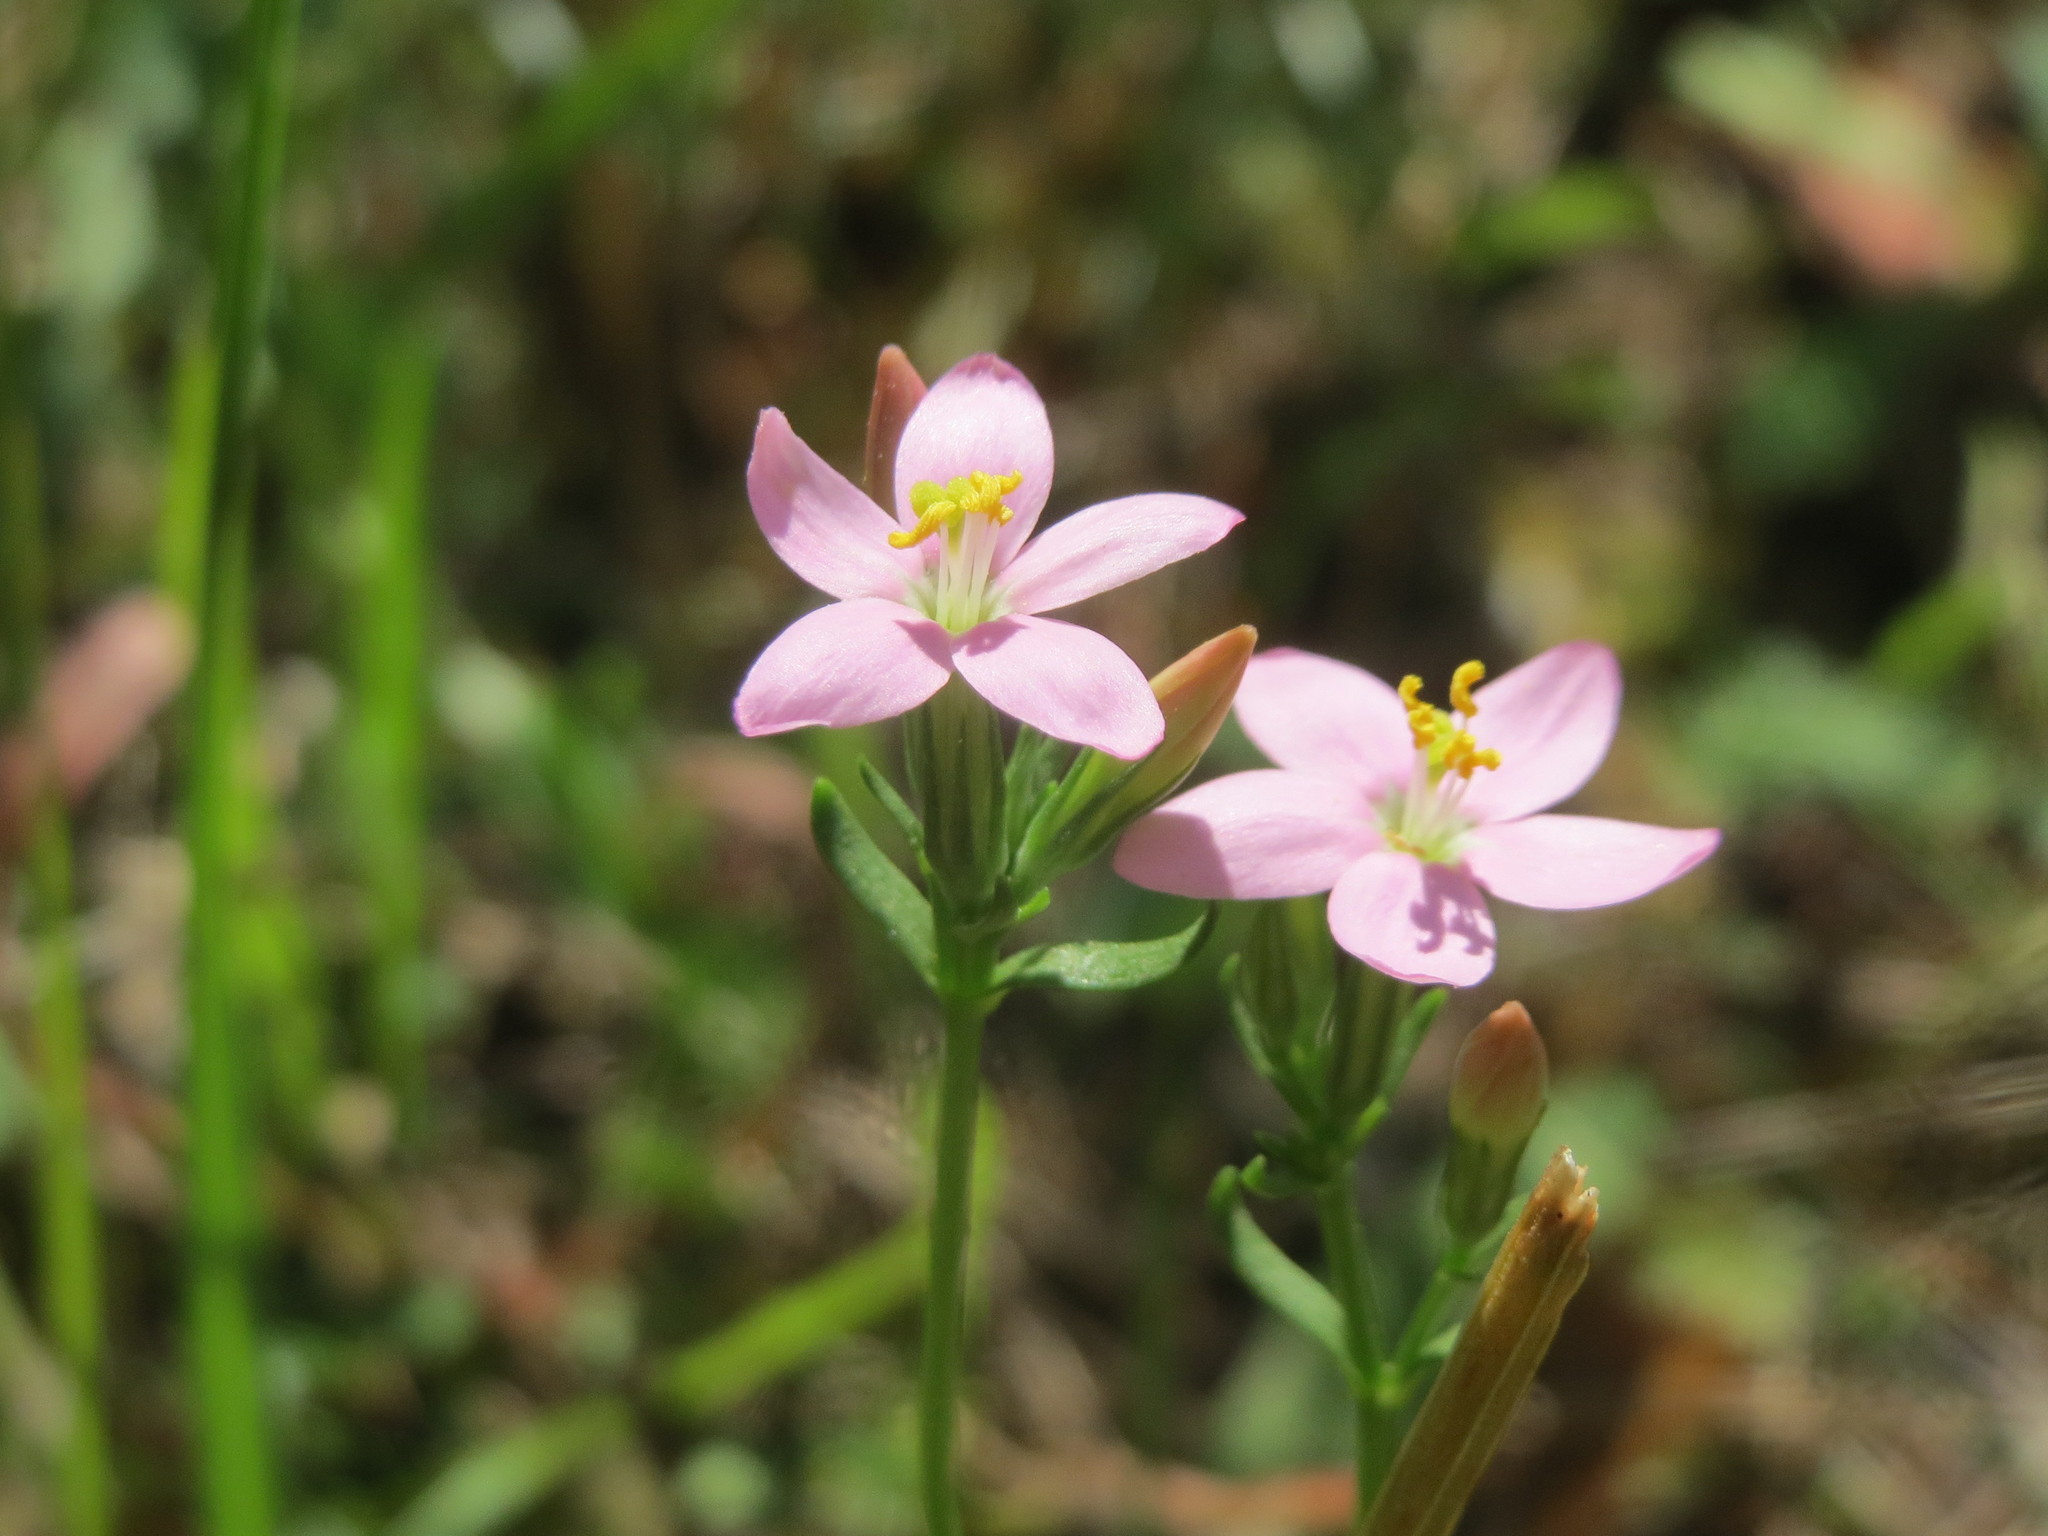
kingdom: Plantae
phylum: Tracheophyta
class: Magnoliopsida
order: Gentianales
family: Gentianaceae
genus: Centaurium
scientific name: Centaurium erythraea
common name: Common centaury
